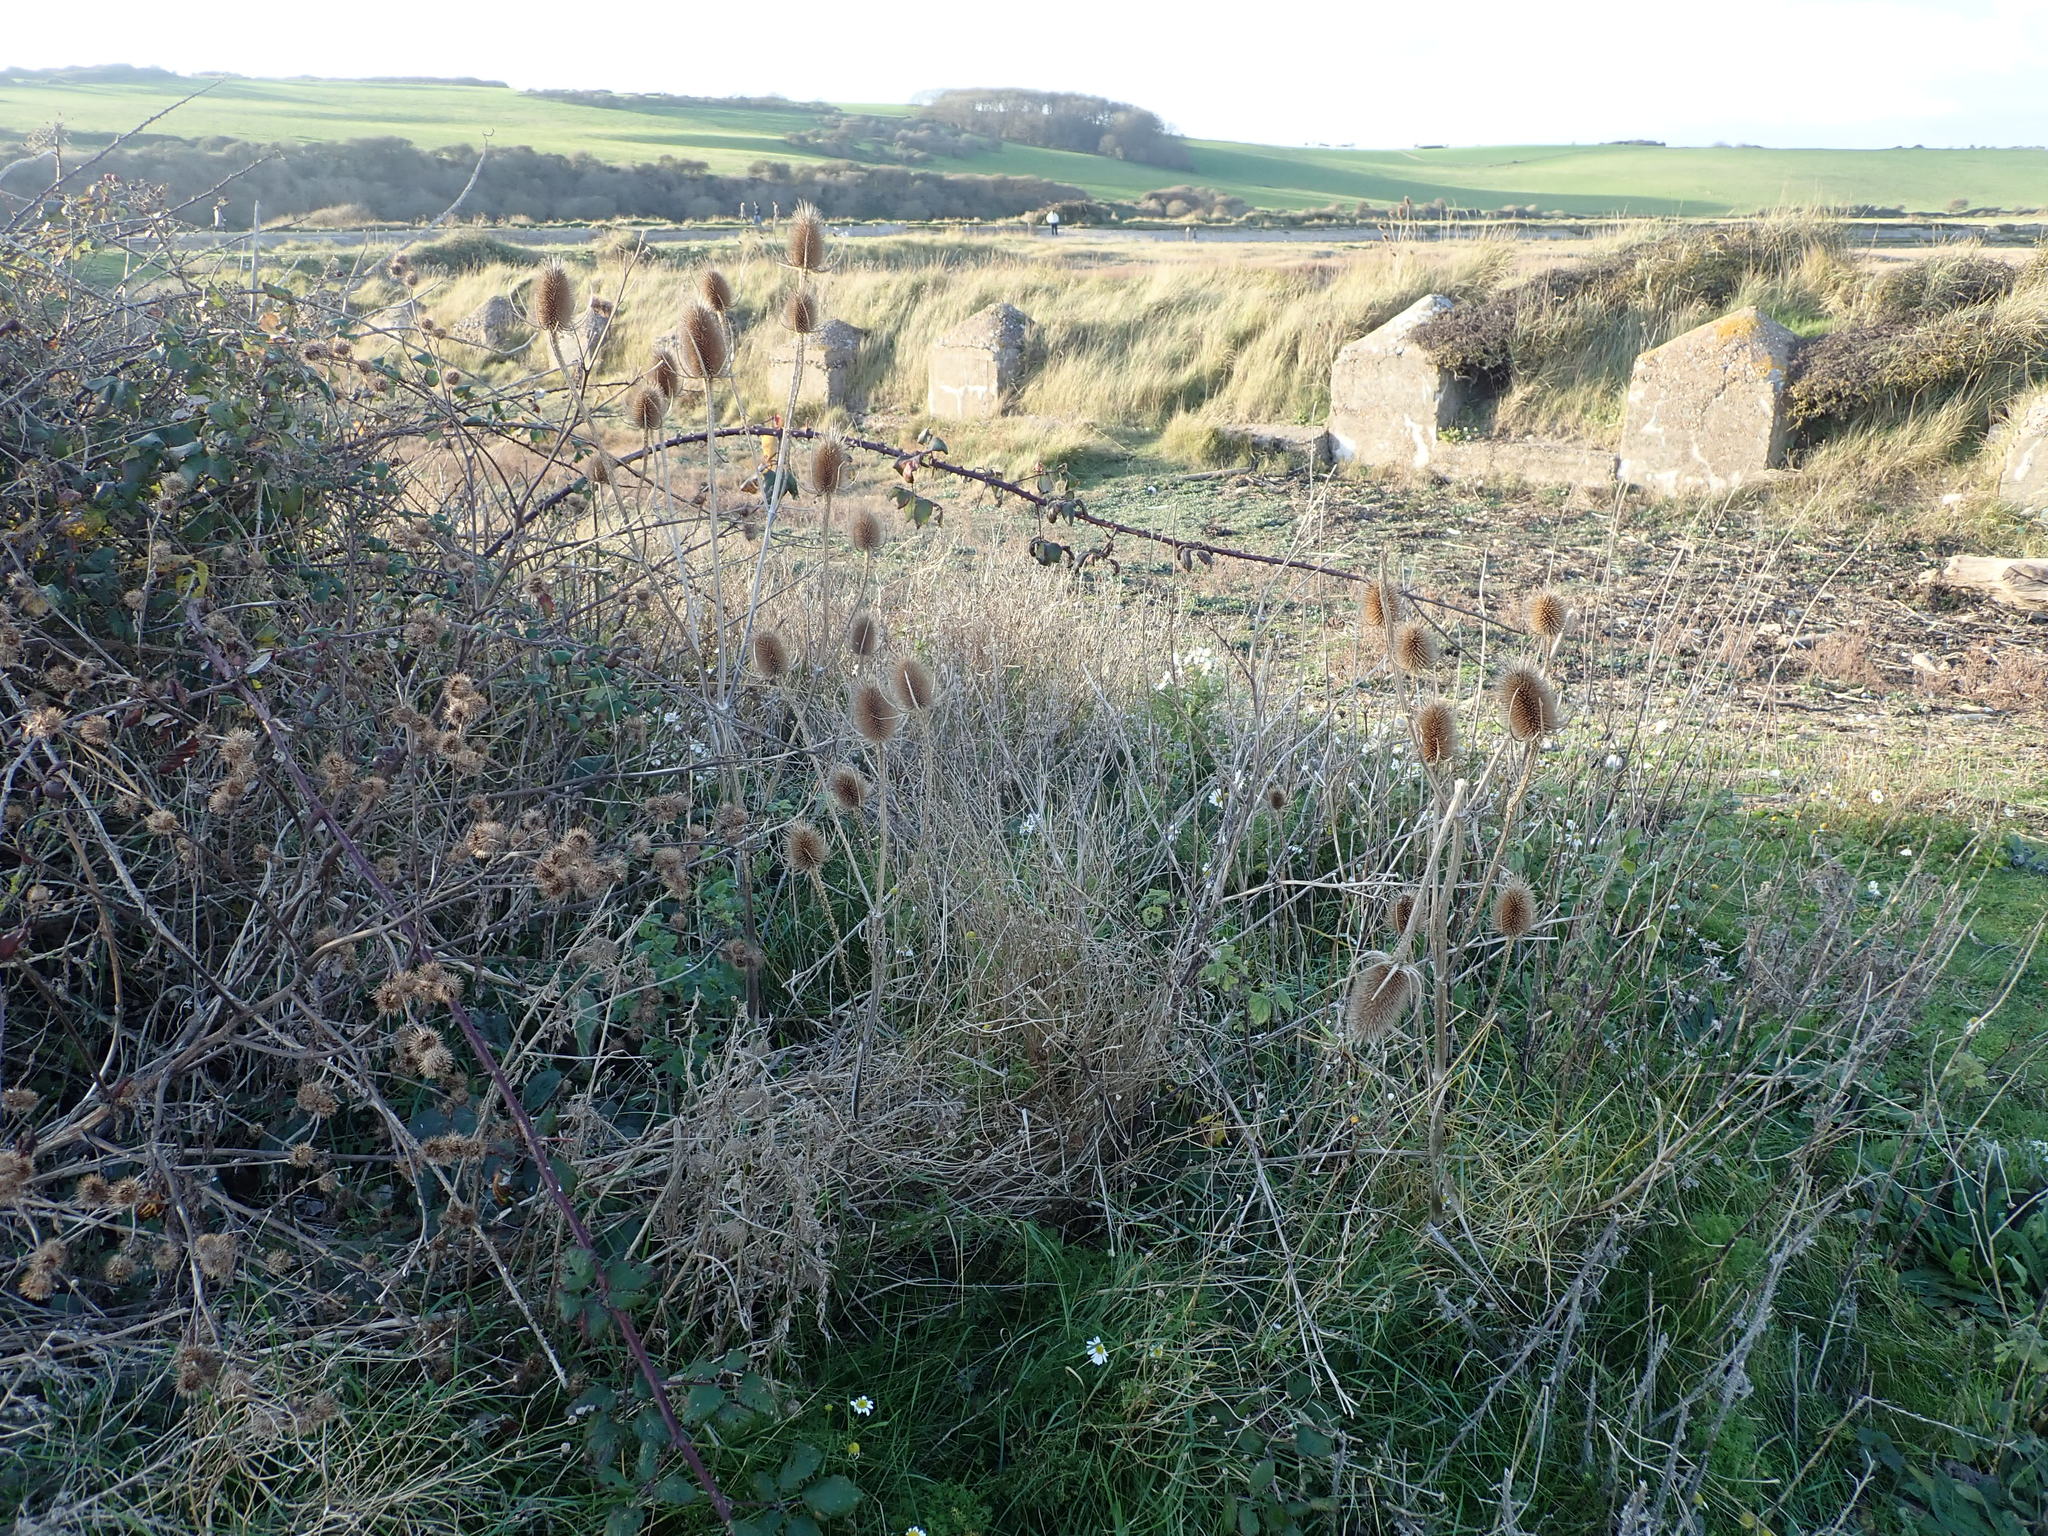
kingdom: Plantae
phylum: Tracheophyta
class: Magnoliopsida
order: Dipsacales
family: Caprifoliaceae
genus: Dipsacus
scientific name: Dipsacus fullonum
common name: Teasel
